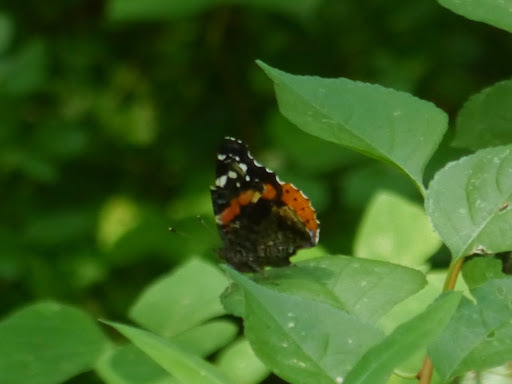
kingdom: Animalia
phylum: Arthropoda
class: Insecta
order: Lepidoptera
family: Nymphalidae
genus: Vanessa
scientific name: Vanessa atalanta
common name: Red admiral
